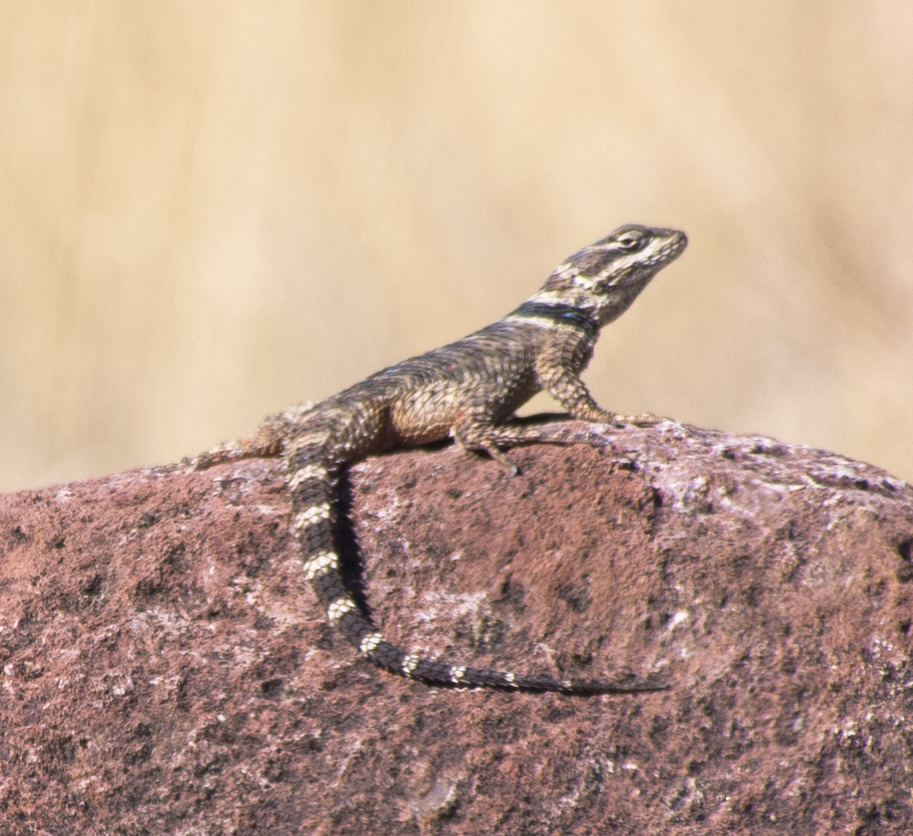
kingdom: Animalia
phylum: Chordata
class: Squamata
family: Phrynosomatidae
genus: Sceloporus
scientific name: Sceloporus poinsettii
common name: Crevice spiny lizard
